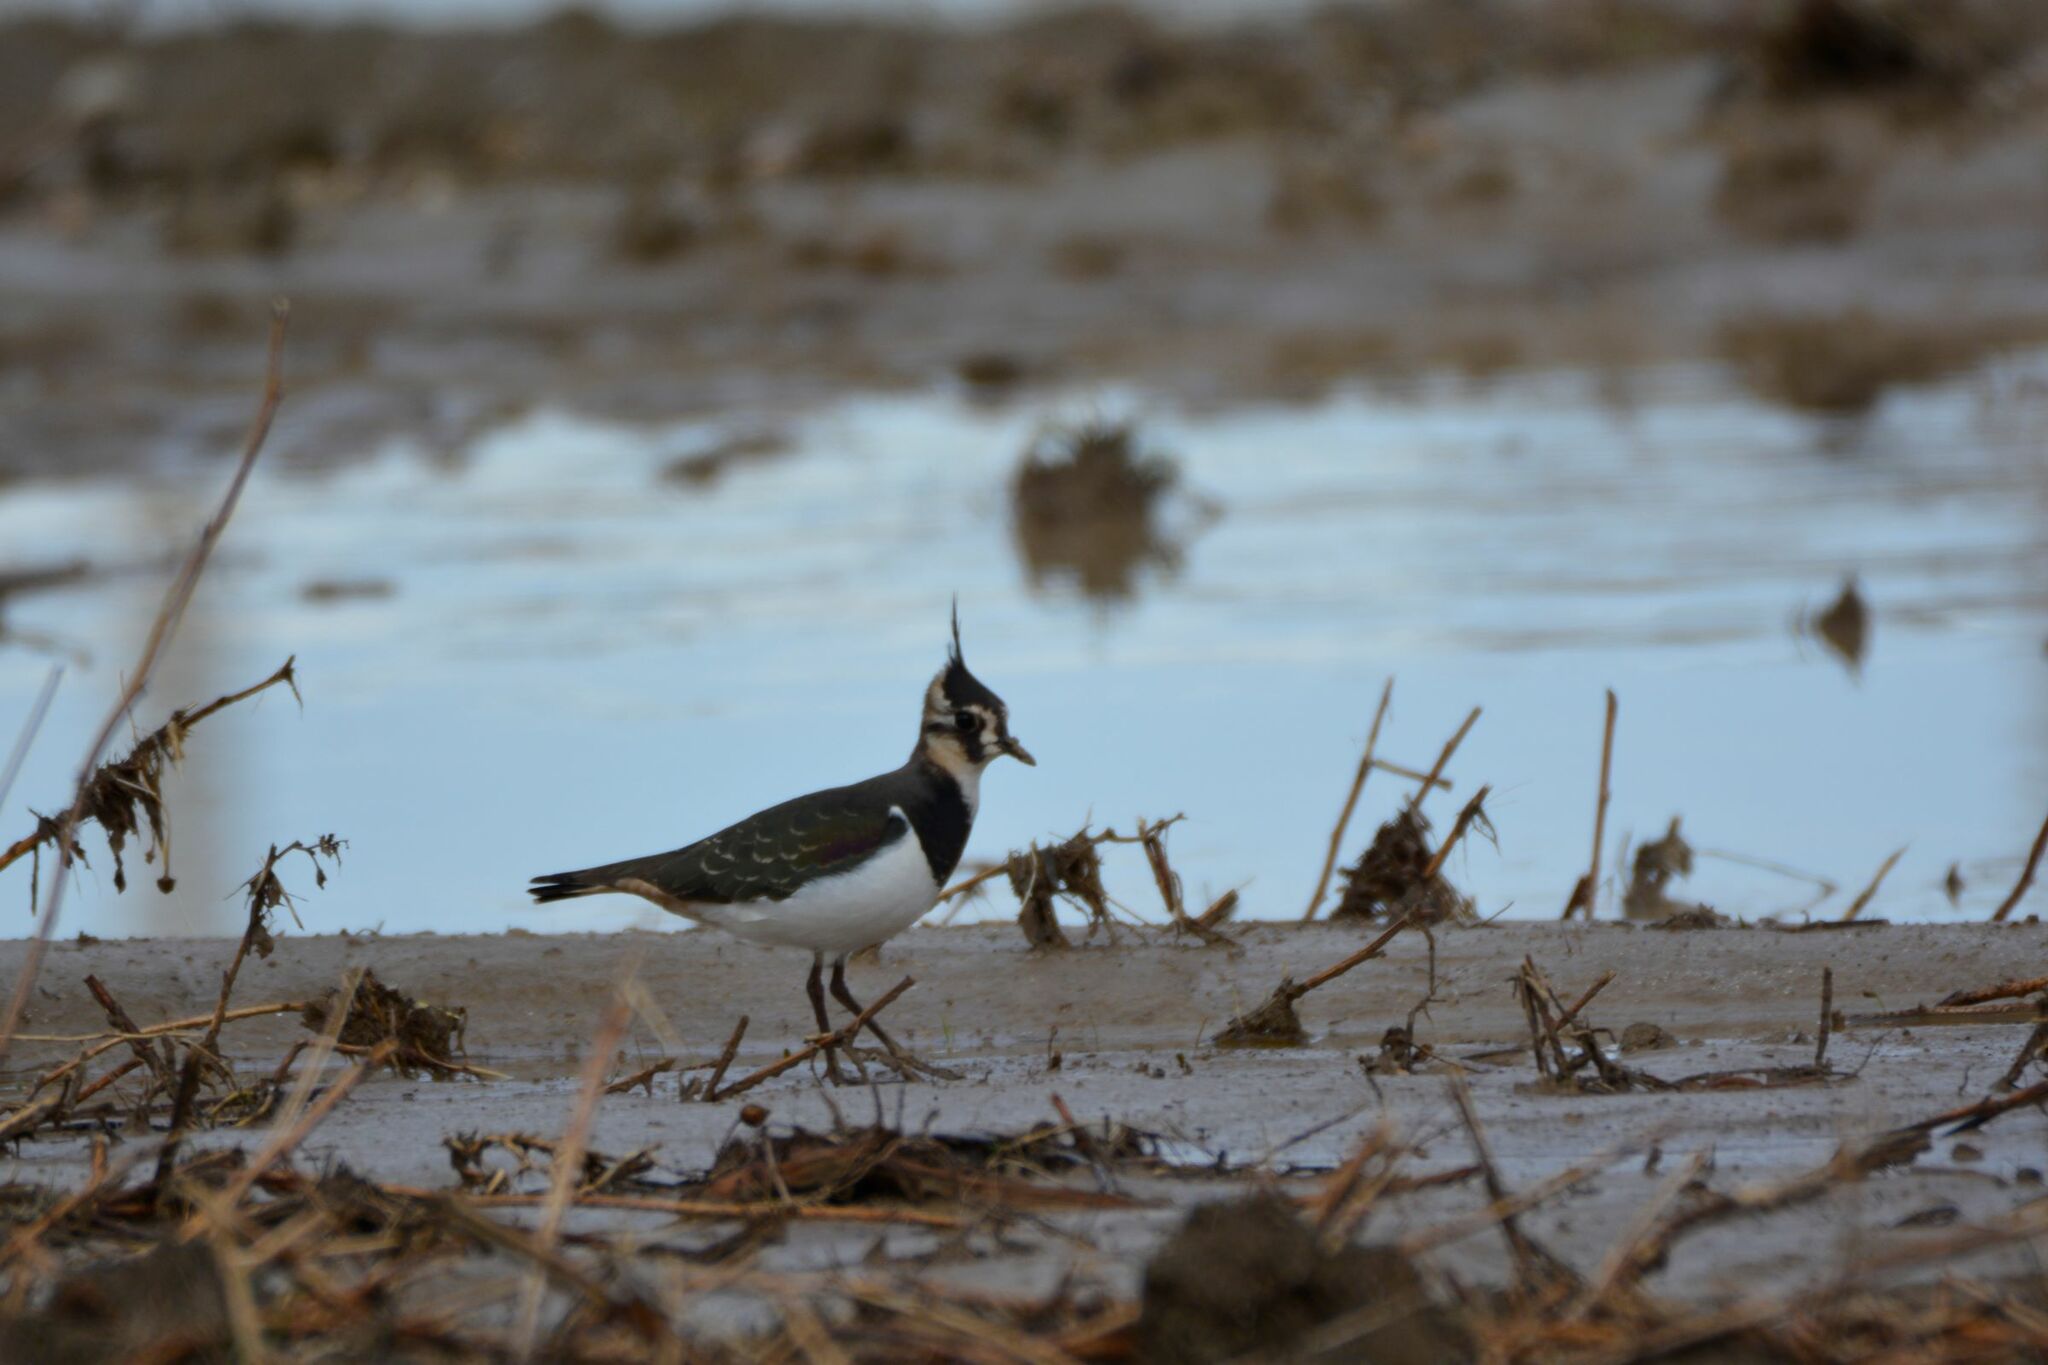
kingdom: Animalia
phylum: Chordata
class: Aves
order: Charadriiformes
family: Charadriidae
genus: Vanellus
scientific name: Vanellus vanellus
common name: Northern lapwing
